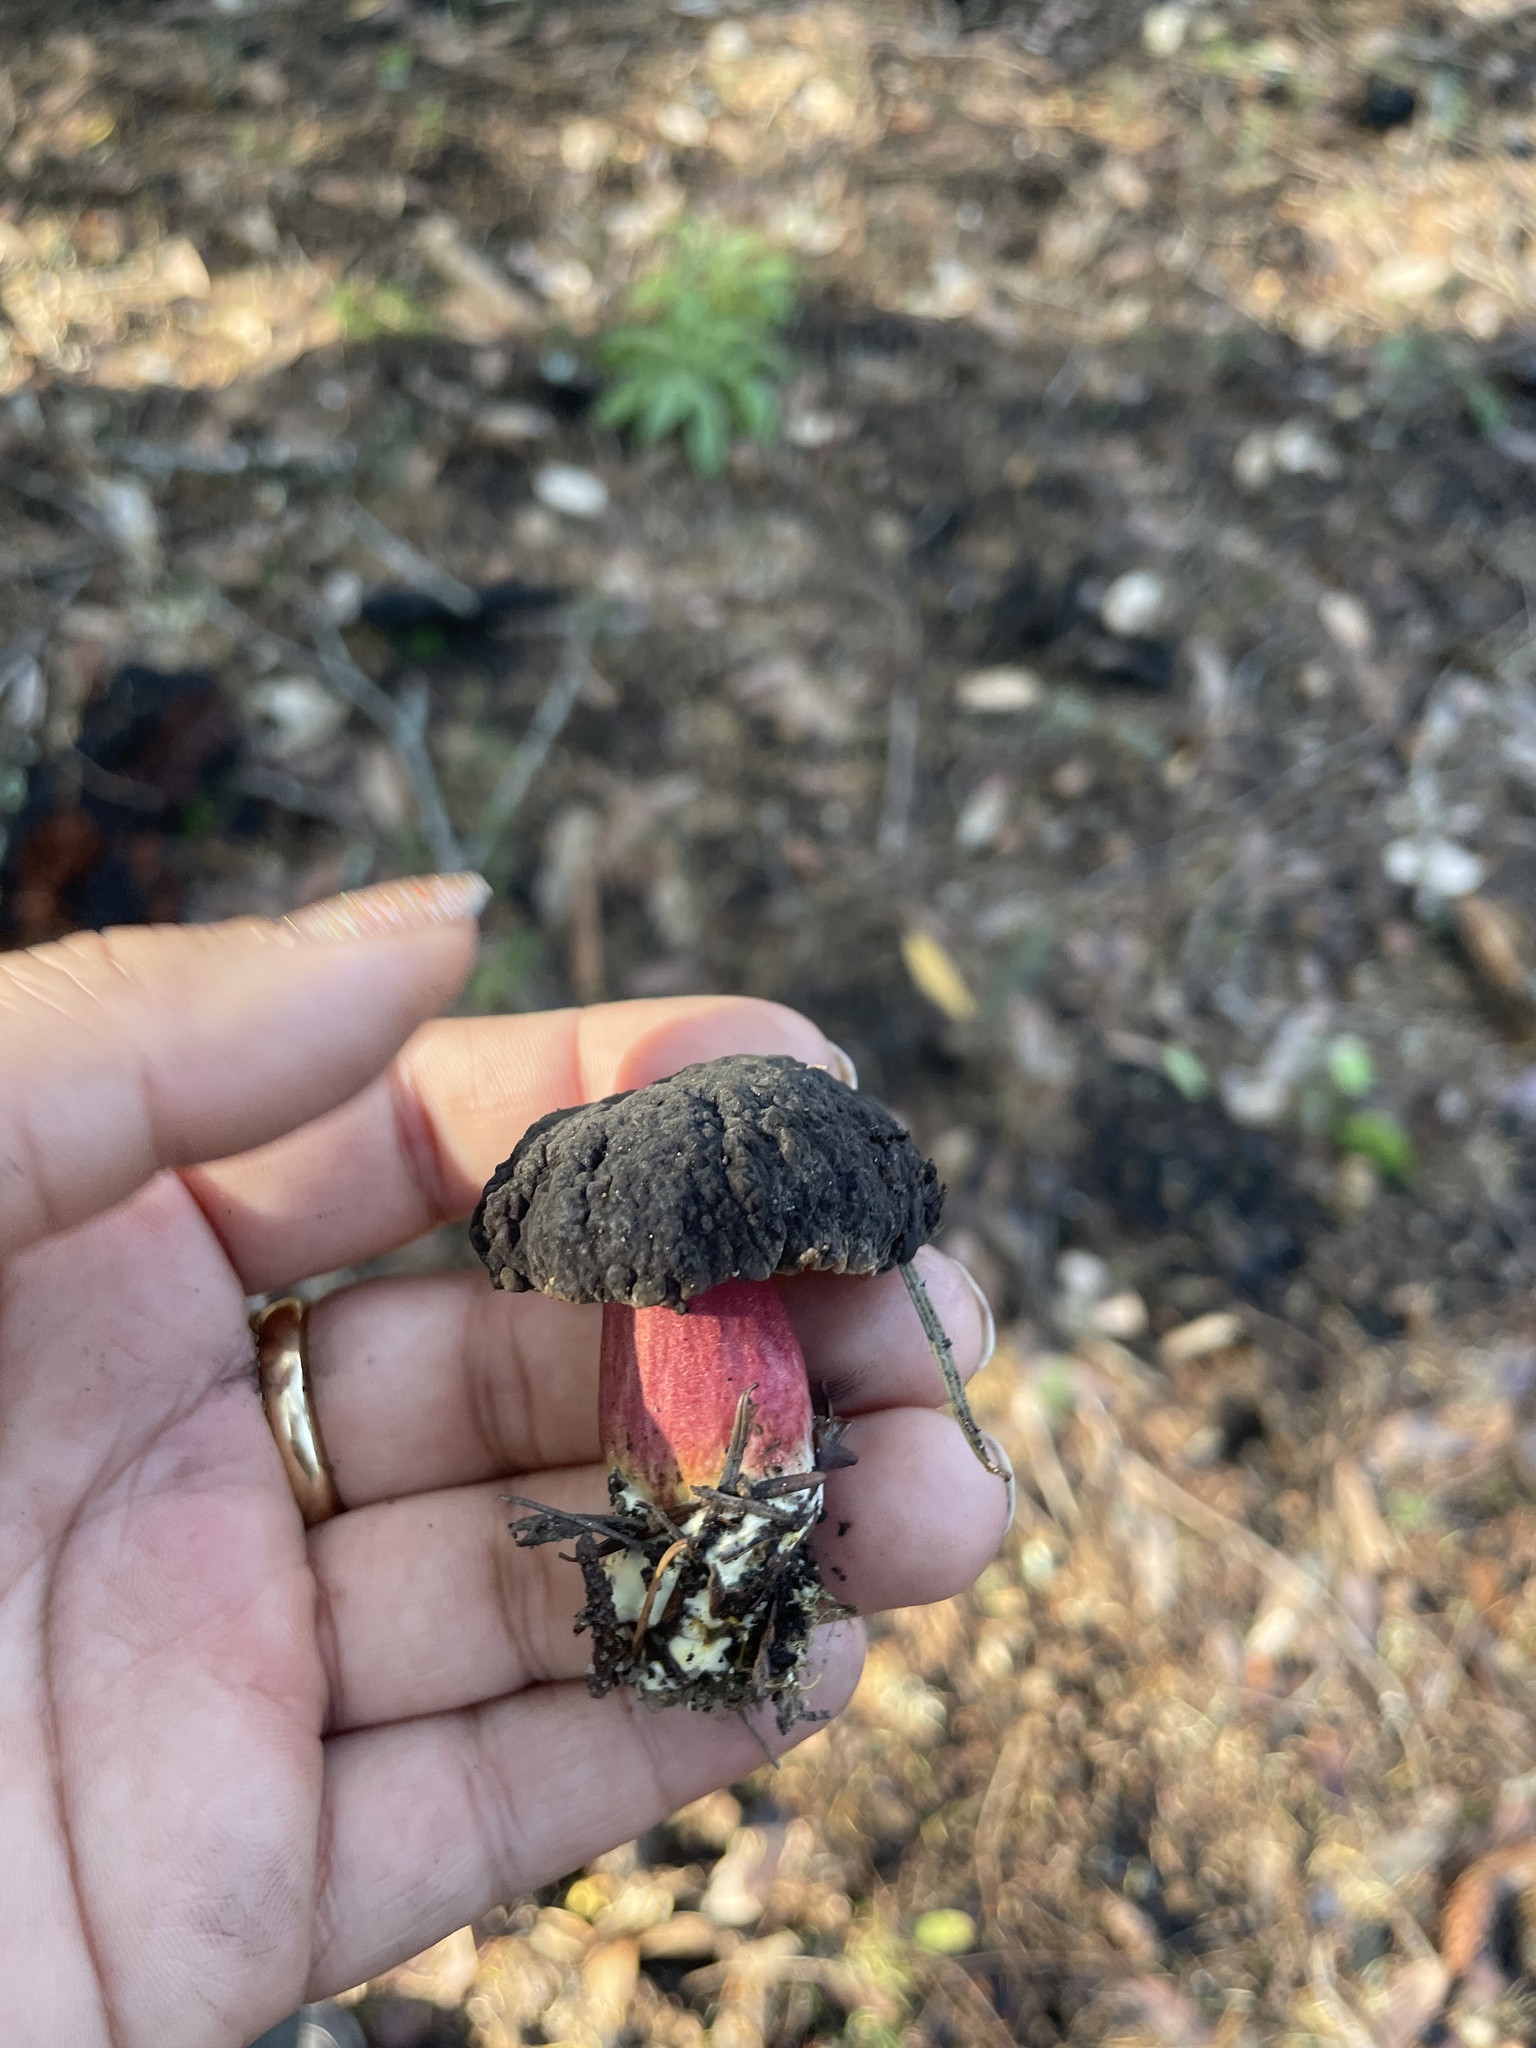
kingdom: Fungi
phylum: Basidiomycota
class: Agaricomycetes
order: Boletales
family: Boletaceae
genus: Xerocomellus
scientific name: Xerocomellus atropurpureus
